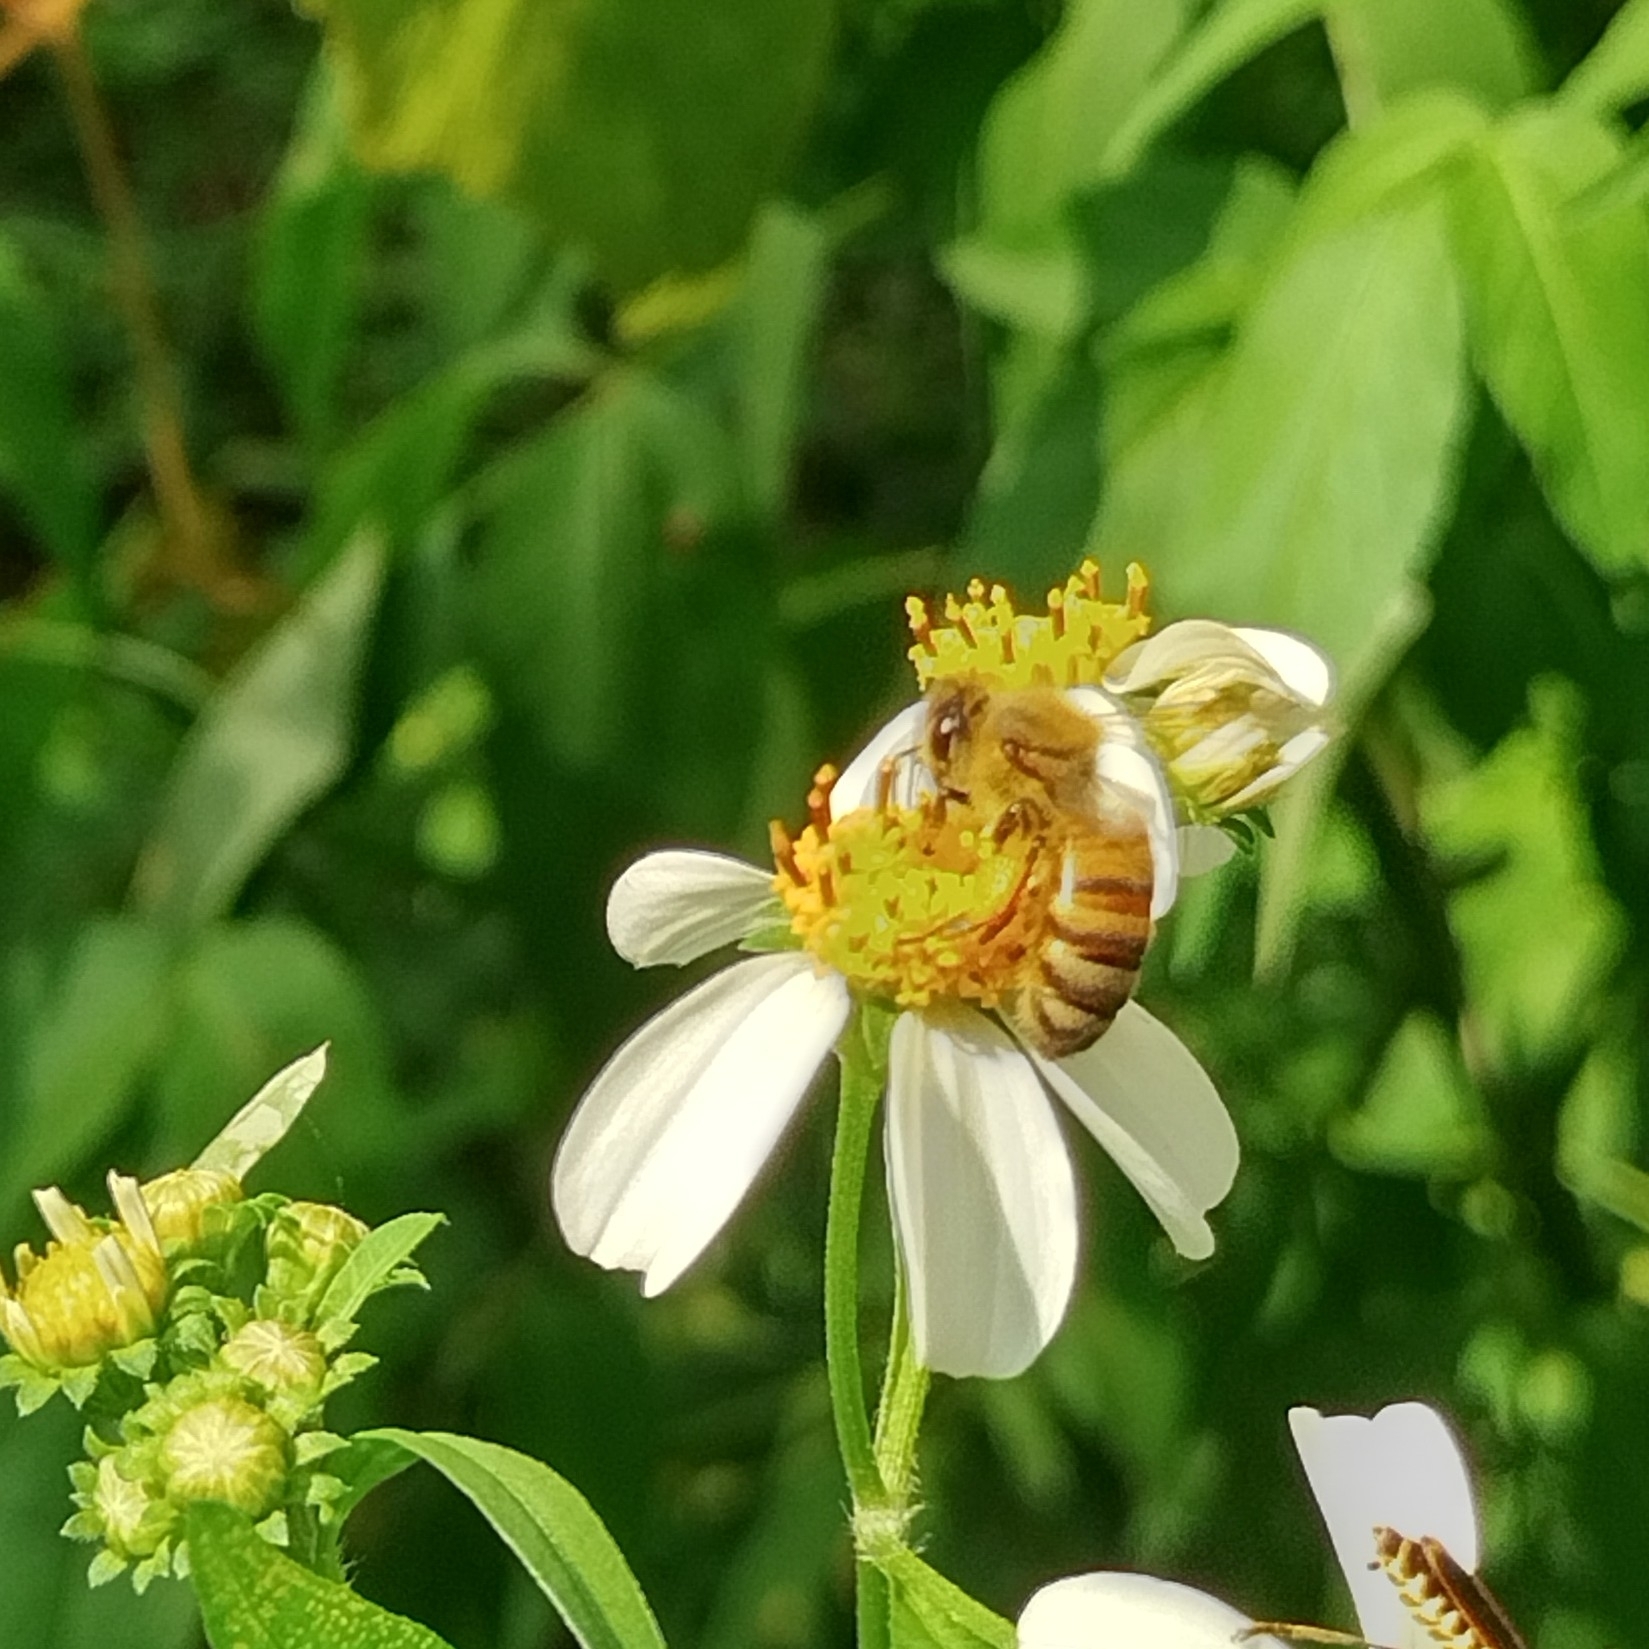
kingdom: Animalia
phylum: Arthropoda
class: Insecta
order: Hymenoptera
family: Apidae
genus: Apis
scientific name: Apis mellifera
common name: Honey bee
